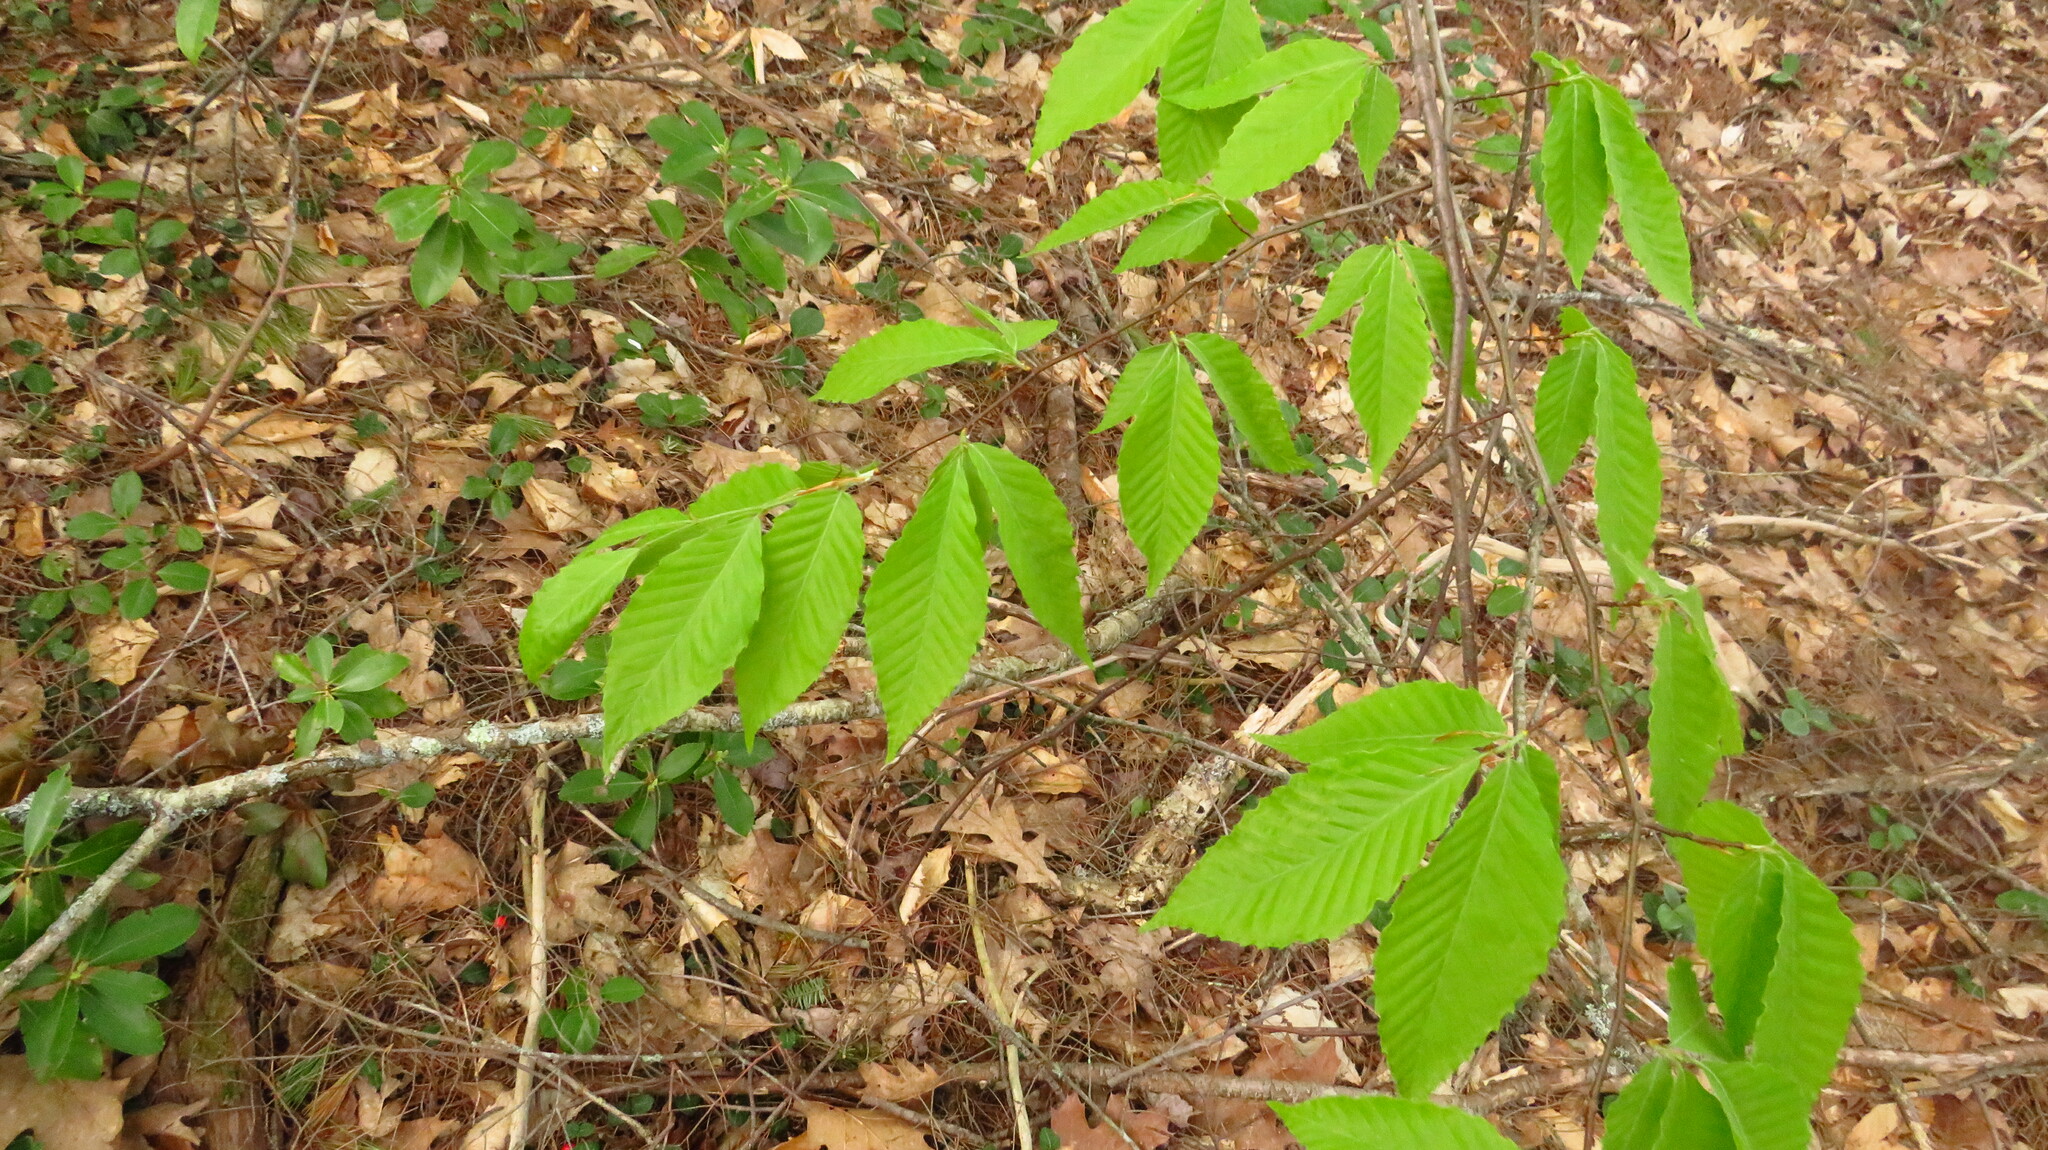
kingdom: Plantae
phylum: Tracheophyta
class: Magnoliopsida
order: Fagales
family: Fagaceae
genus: Fagus
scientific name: Fagus grandifolia
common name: American beech
